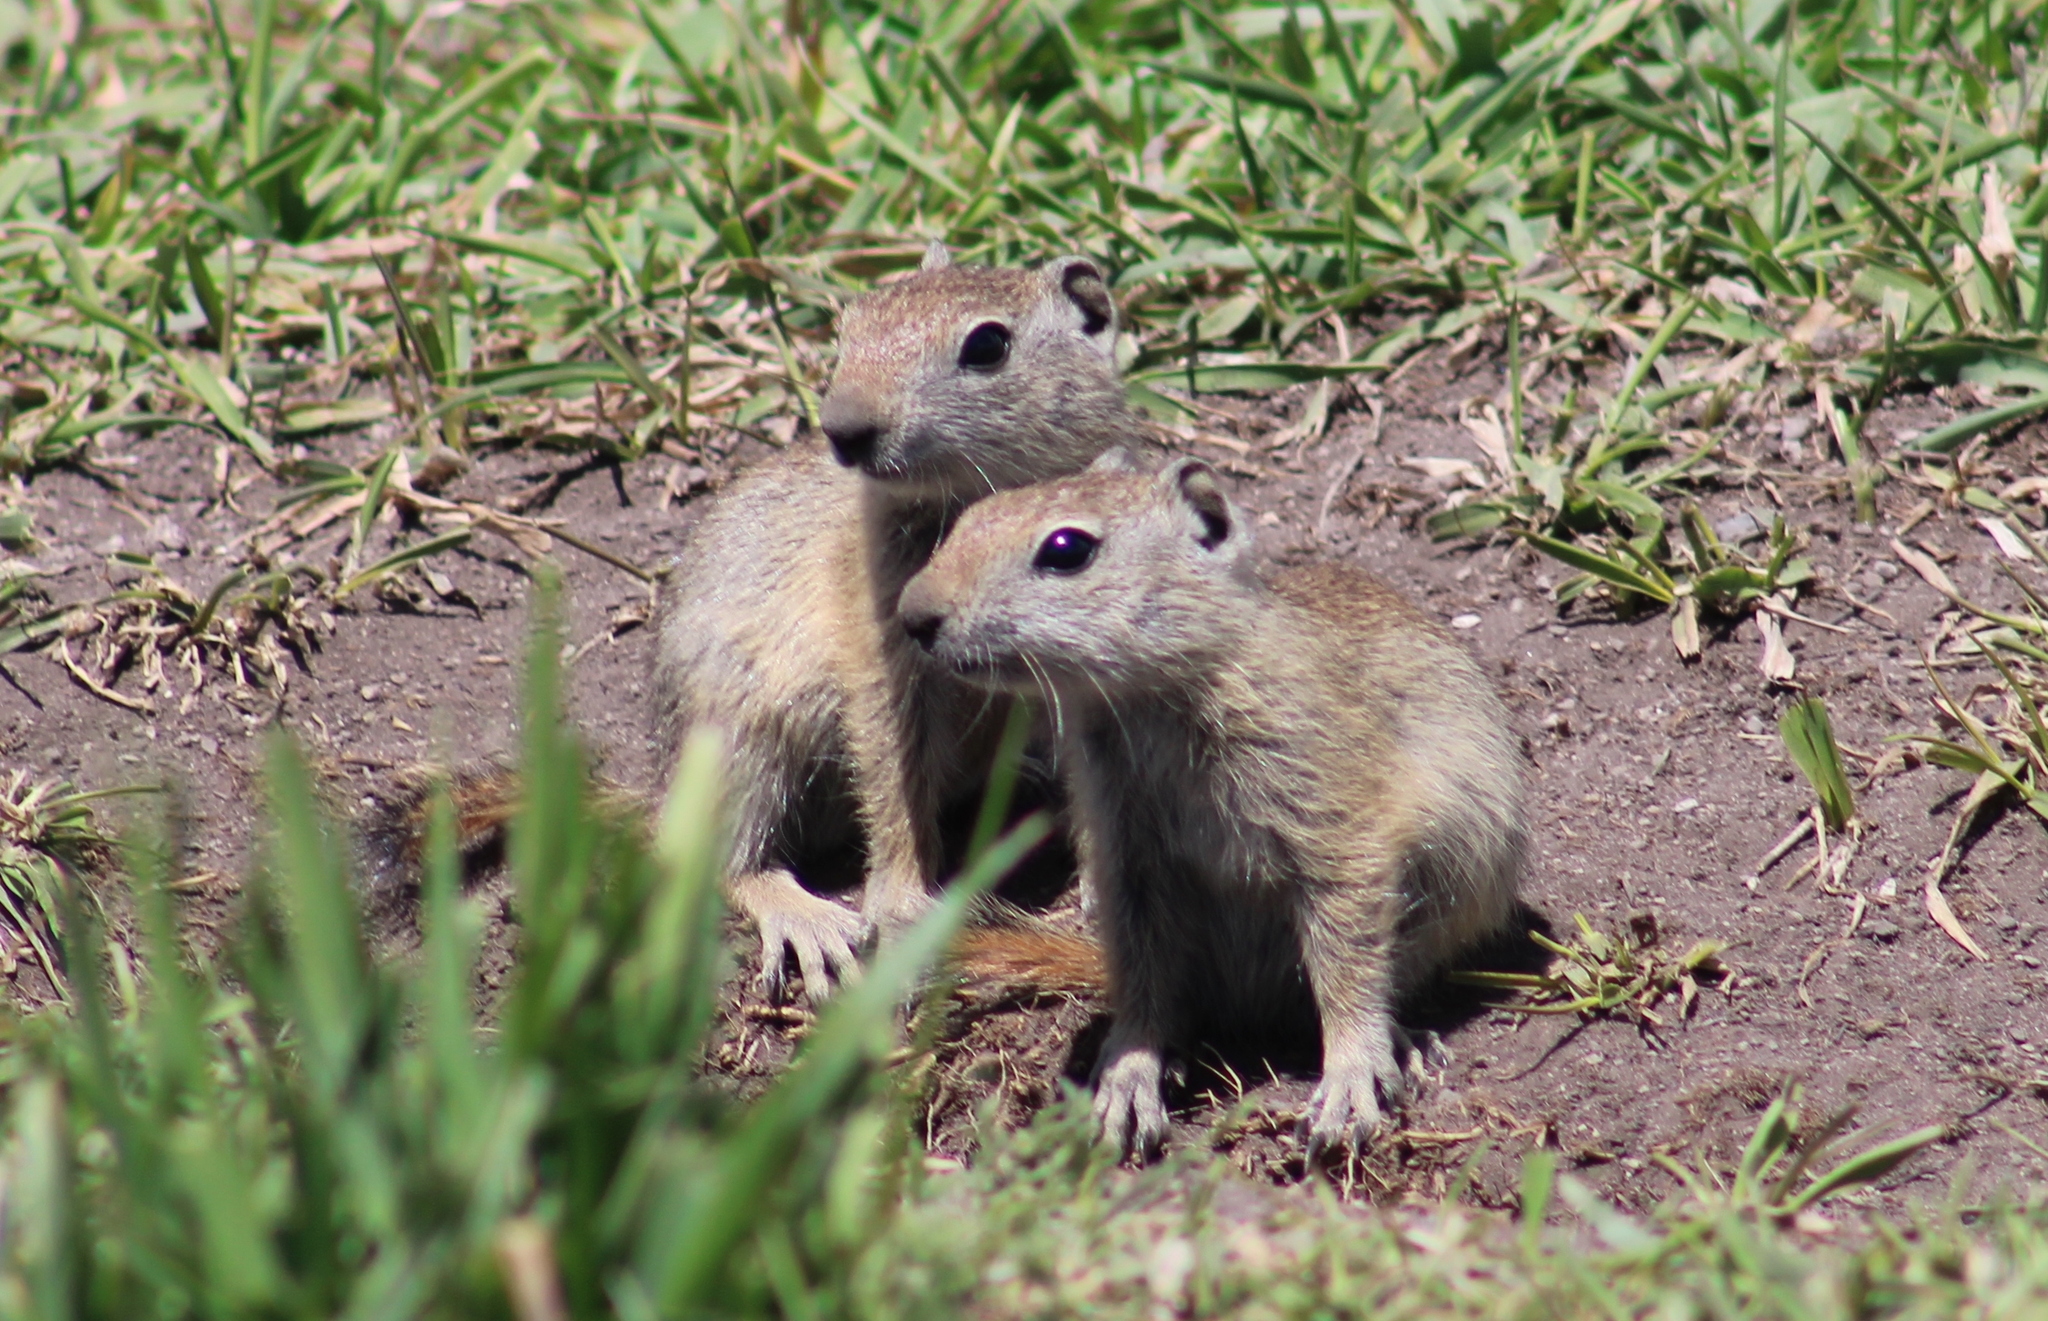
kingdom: Animalia
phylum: Chordata
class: Mammalia
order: Rodentia
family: Sciuridae
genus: Urocitellus
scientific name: Urocitellus beldingi
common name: Belding's ground squirrel
